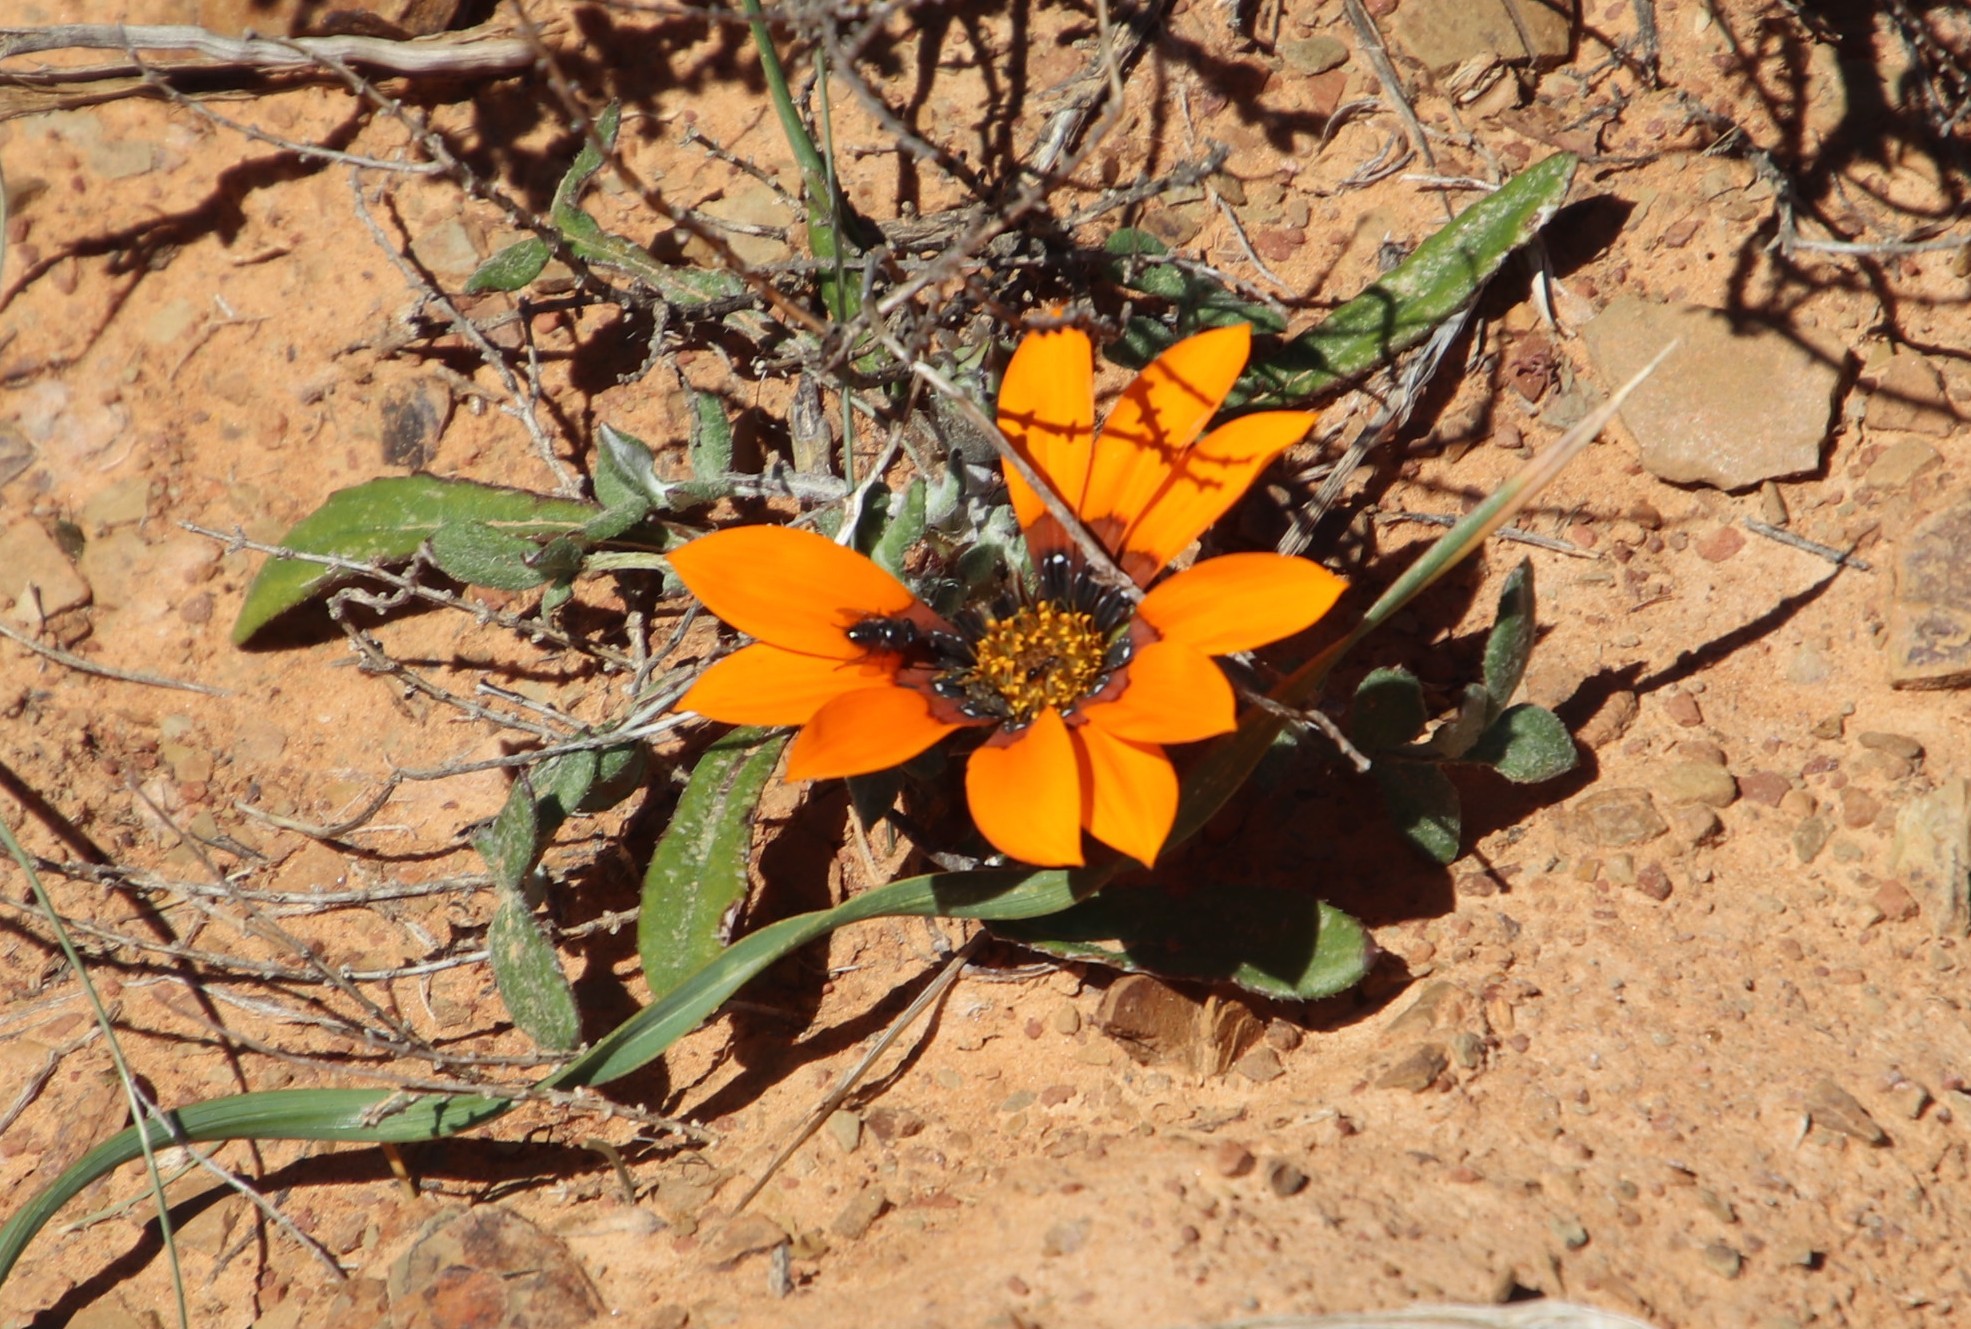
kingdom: Animalia
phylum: Arthropoda
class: Insecta
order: Diptera
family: Bombyliidae
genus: Megapalpus
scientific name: Megapalpus capensis
